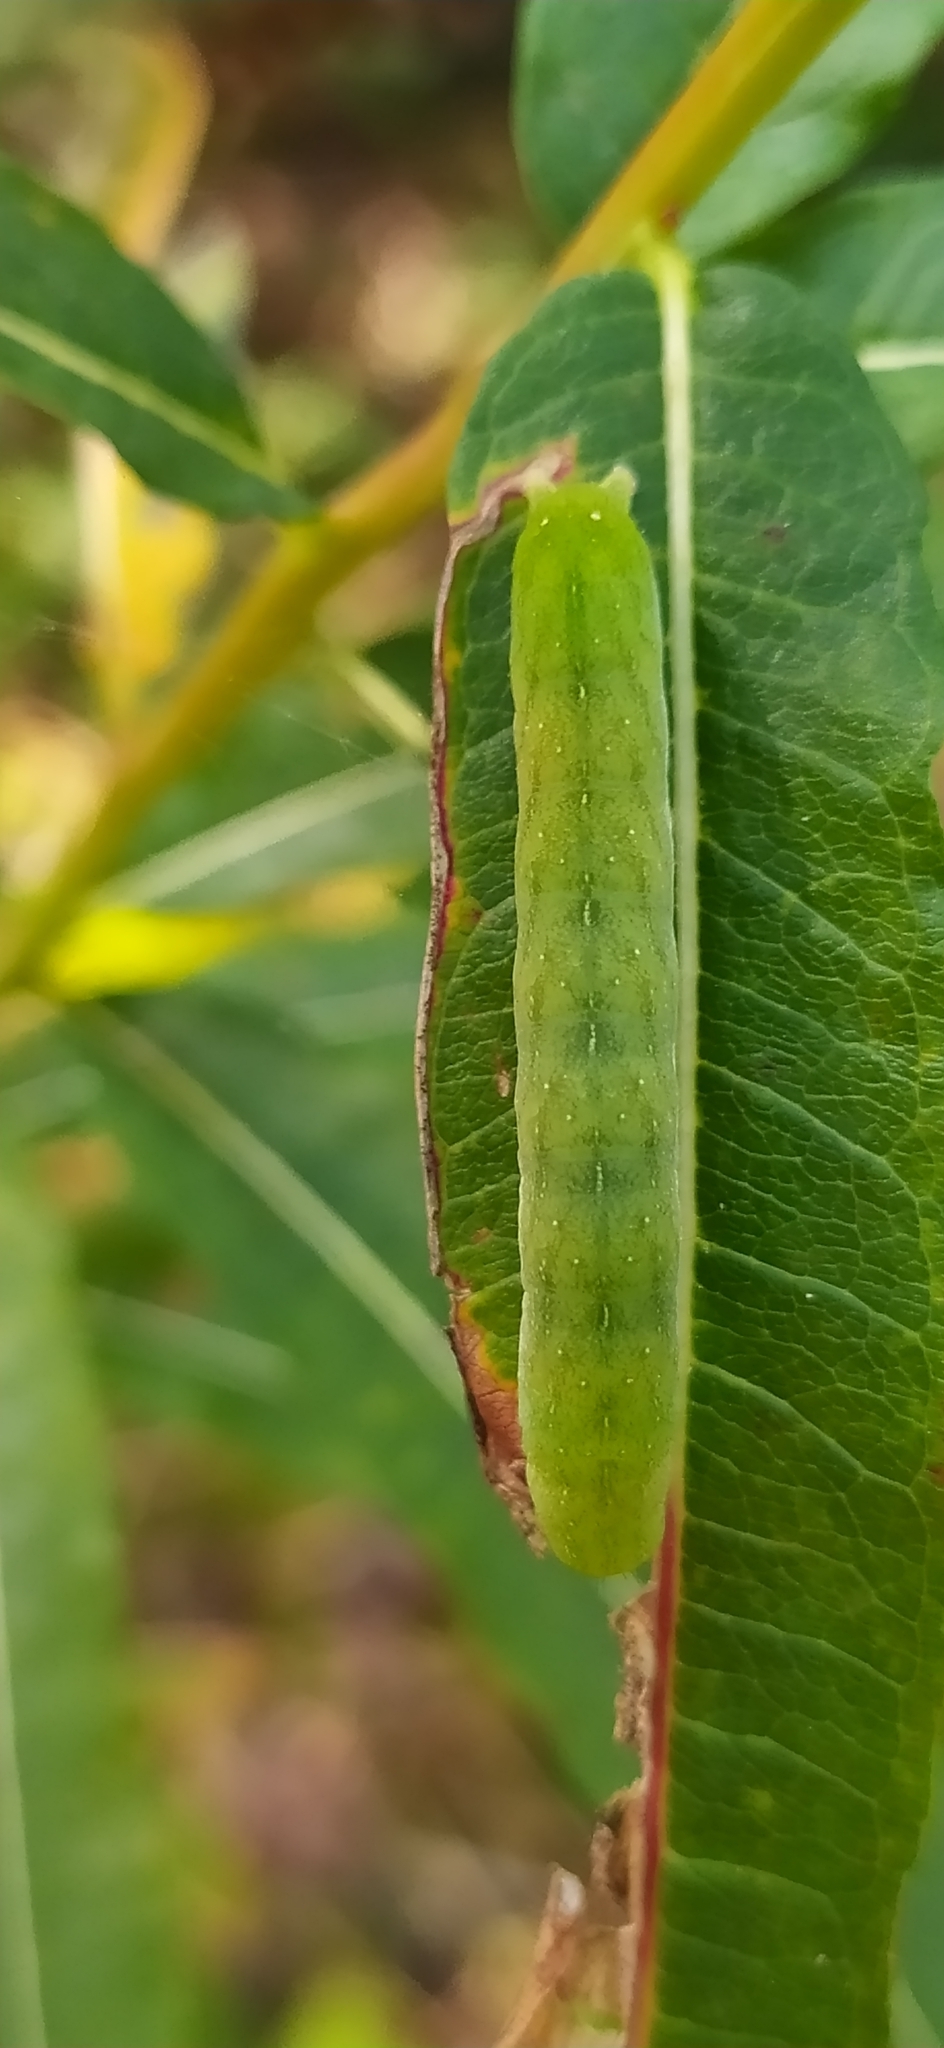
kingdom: Animalia
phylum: Arthropoda
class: Insecta
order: Lepidoptera
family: Noctuidae
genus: Euplexia
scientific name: Euplexia lucipara
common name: Small angle shades
